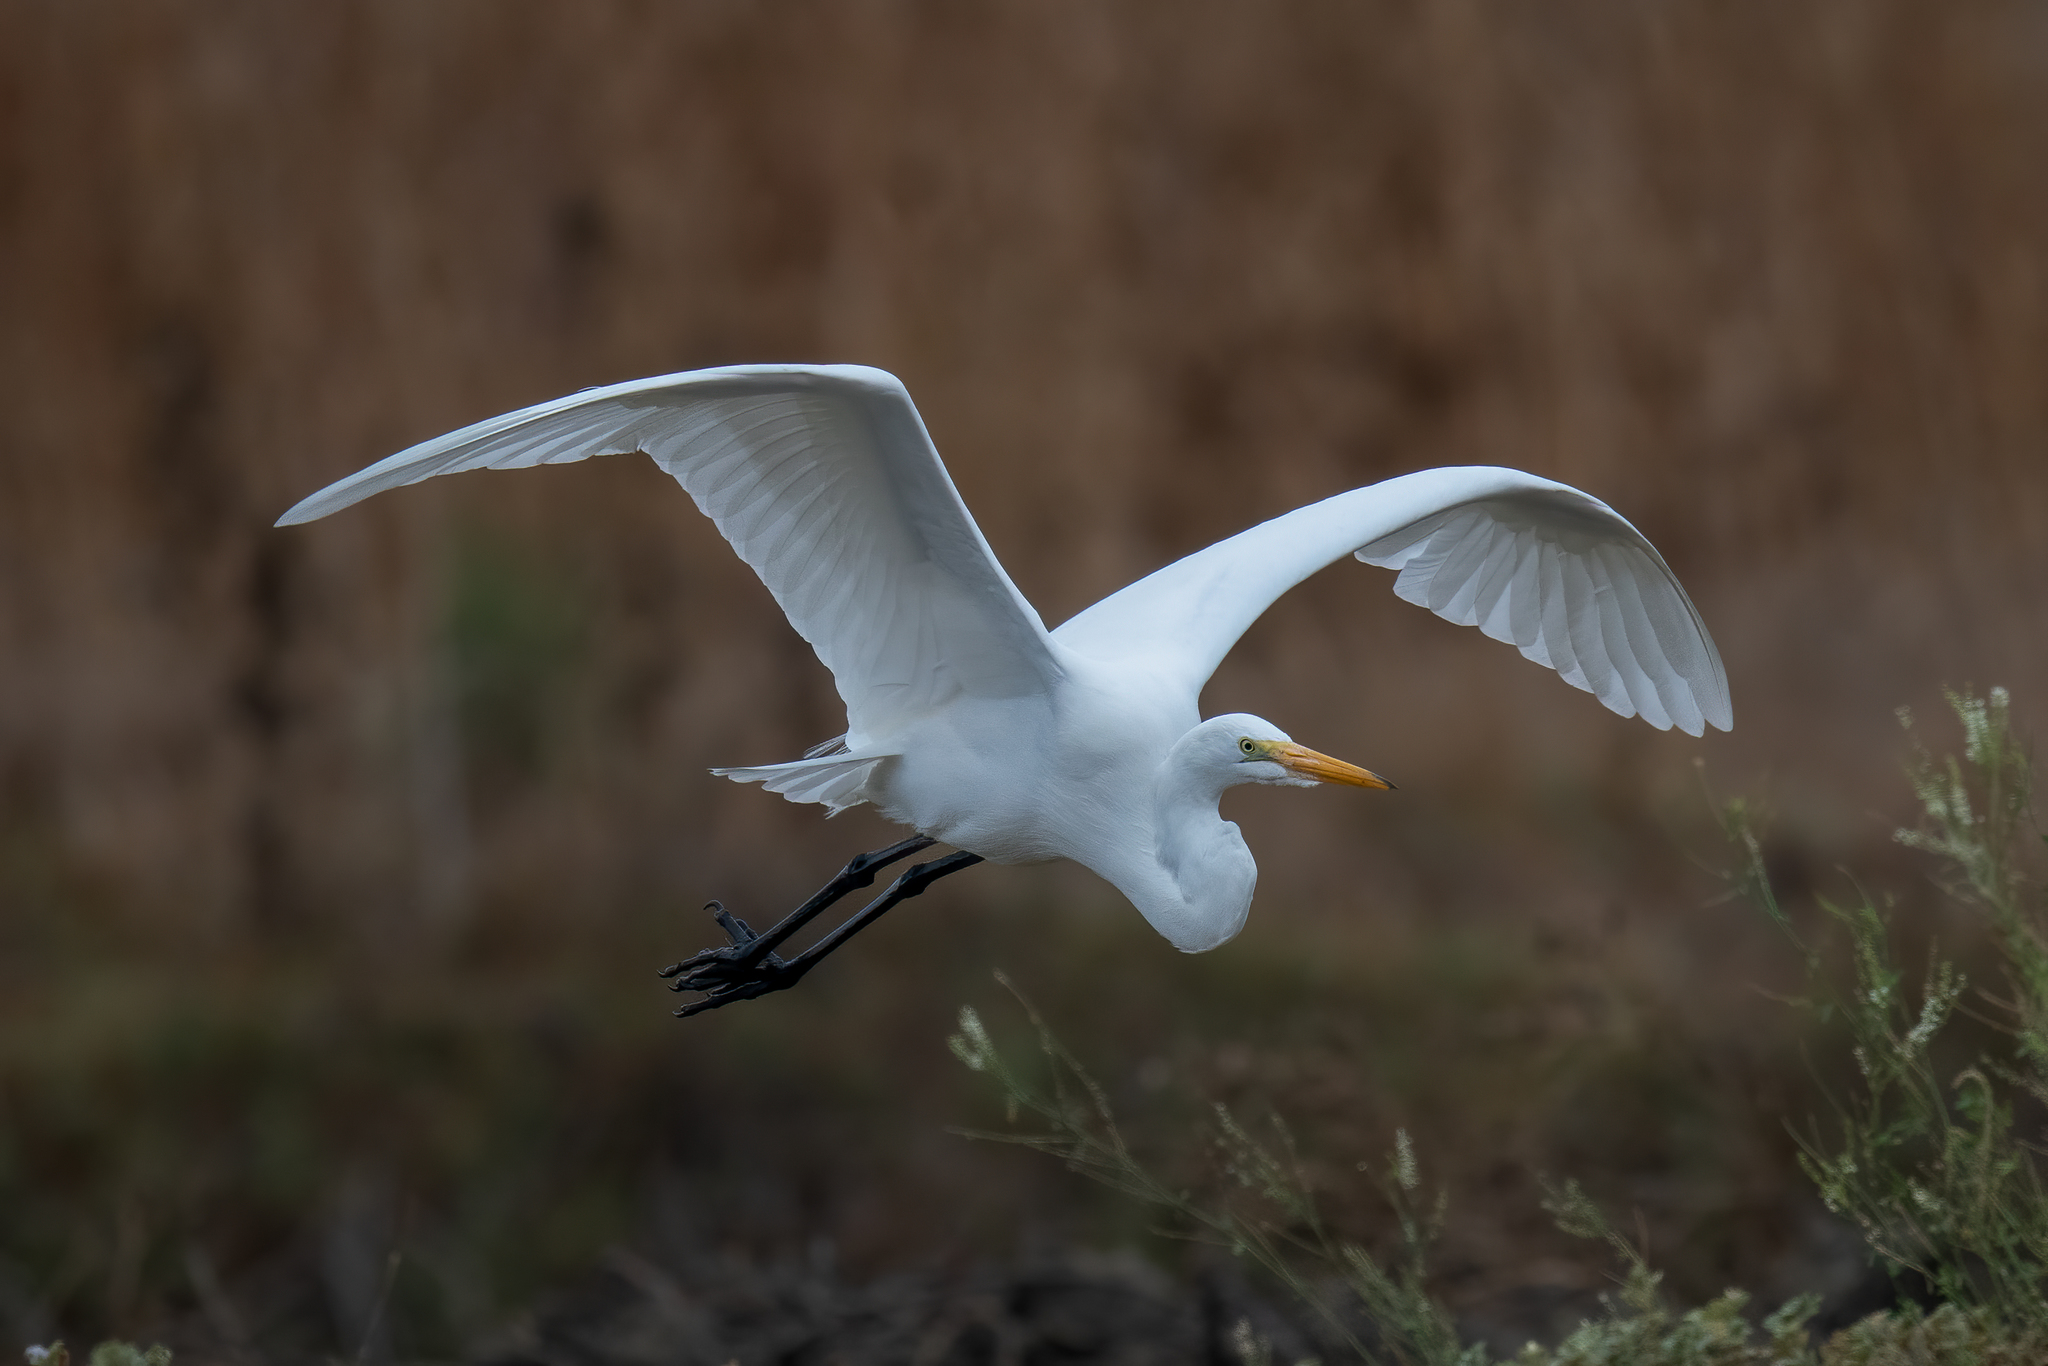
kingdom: Animalia
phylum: Chordata
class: Aves
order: Pelecaniformes
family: Ardeidae
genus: Ardea
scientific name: Ardea alba
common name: Great egret
